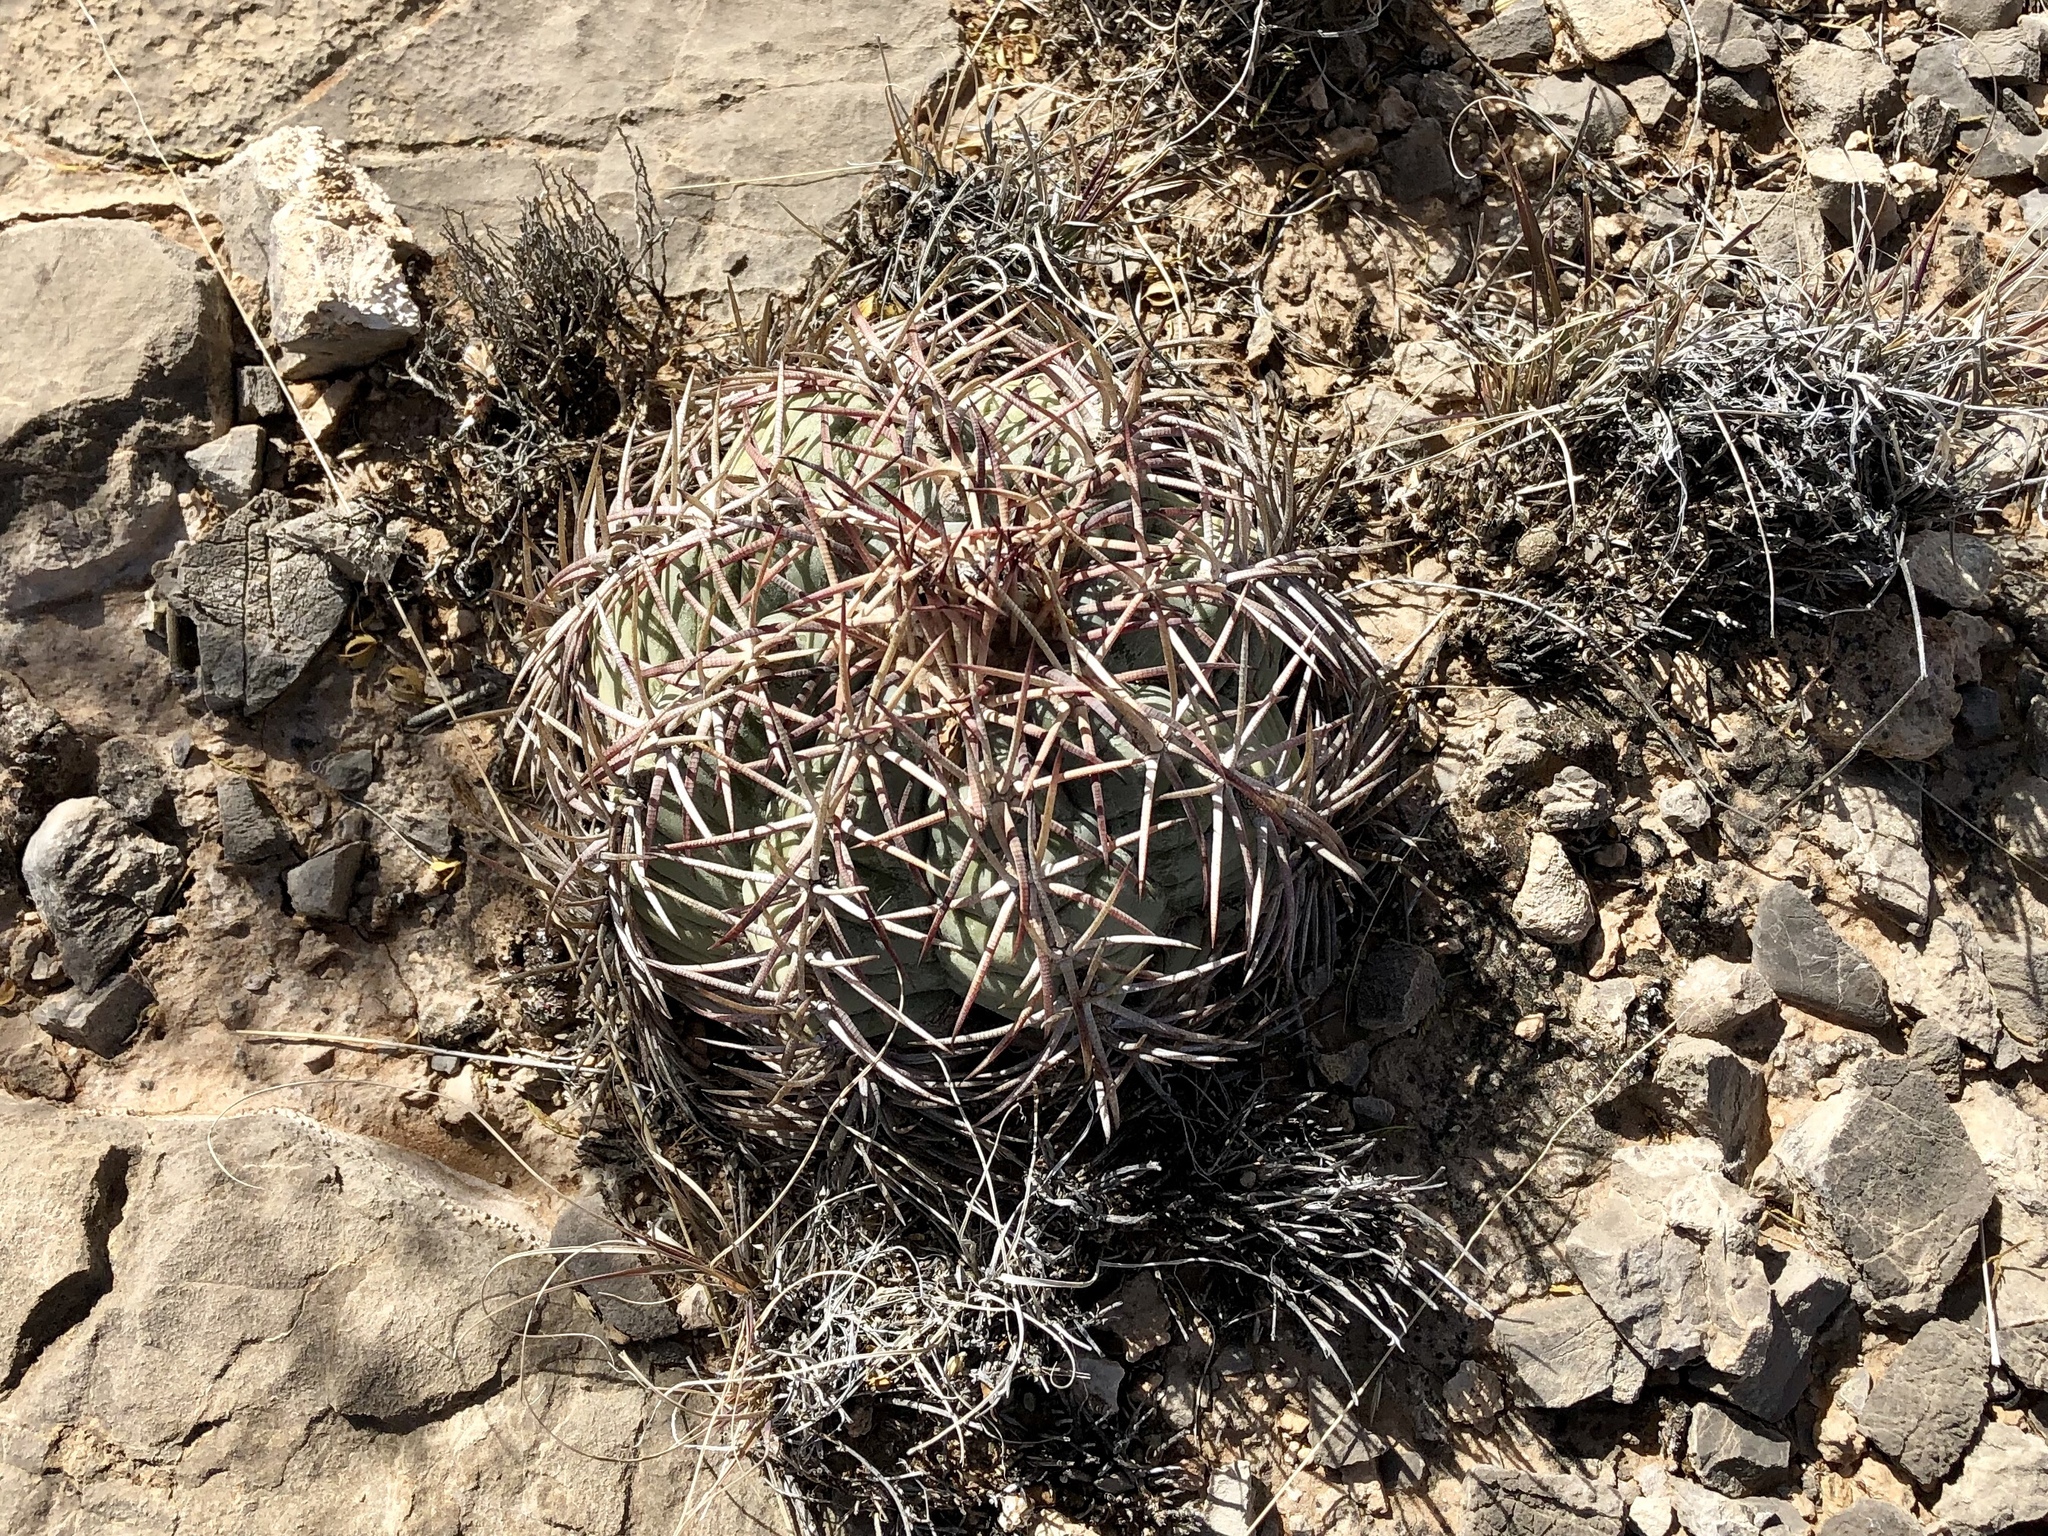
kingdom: Plantae
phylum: Tracheophyta
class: Magnoliopsida
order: Caryophyllales
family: Cactaceae
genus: Echinocactus
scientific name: Echinocactus horizonthalonius
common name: Devilshead
